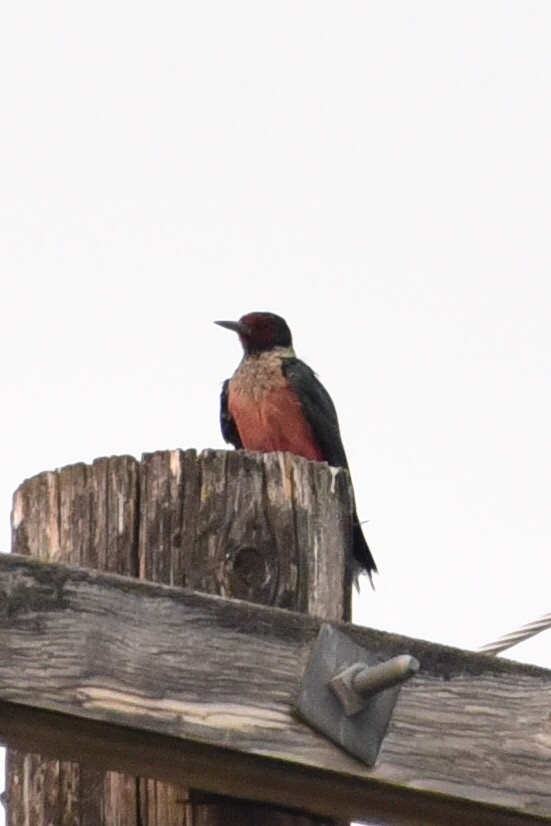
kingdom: Animalia
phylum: Chordata
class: Aves
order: Piciformes
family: Picidae
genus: Melanerpes
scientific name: Melanerpes lewis
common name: Lewis's woodpecker
